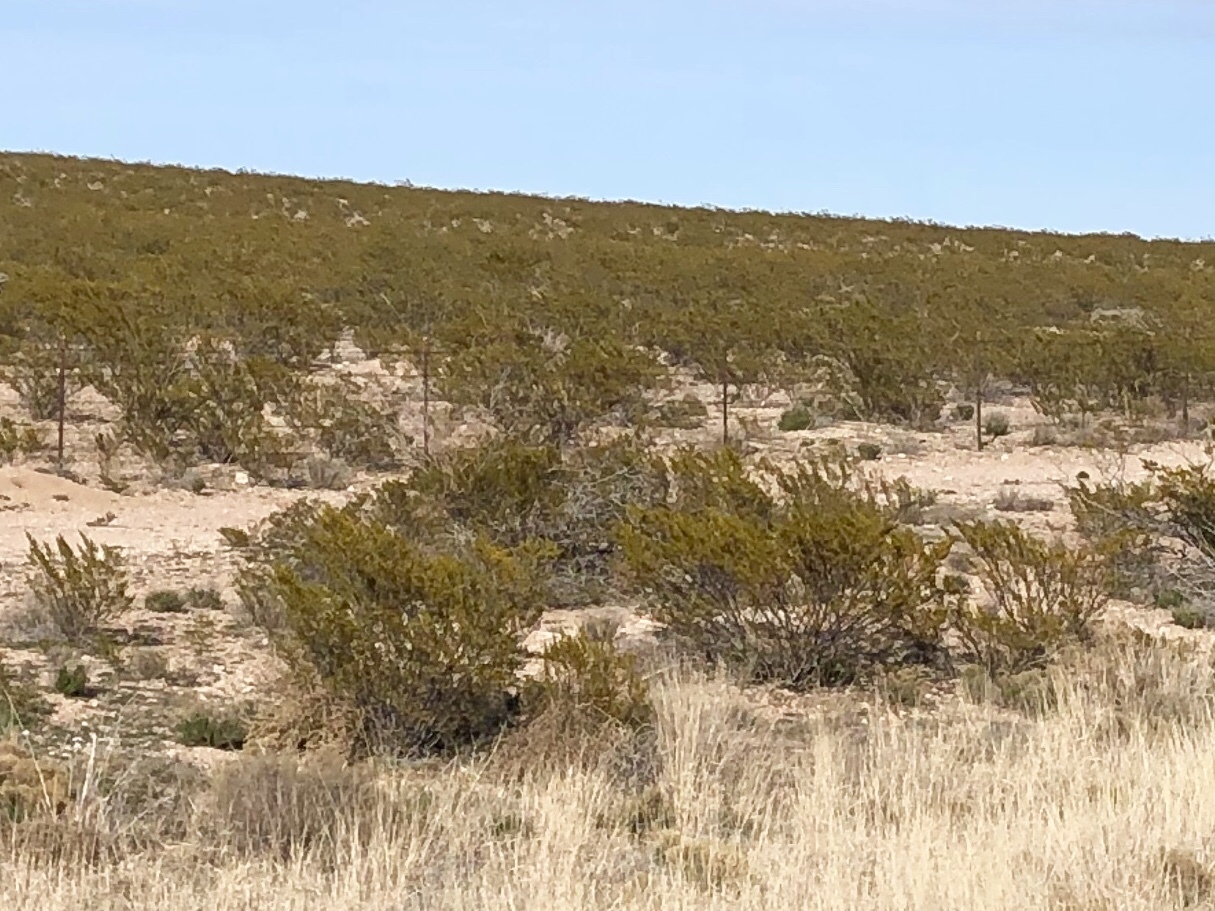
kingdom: Plantae
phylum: Tracheophyta
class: Magnoliopsida
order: Zygophyllales
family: Zygophyllaceae
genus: Larrea
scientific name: Larrea tridentata
